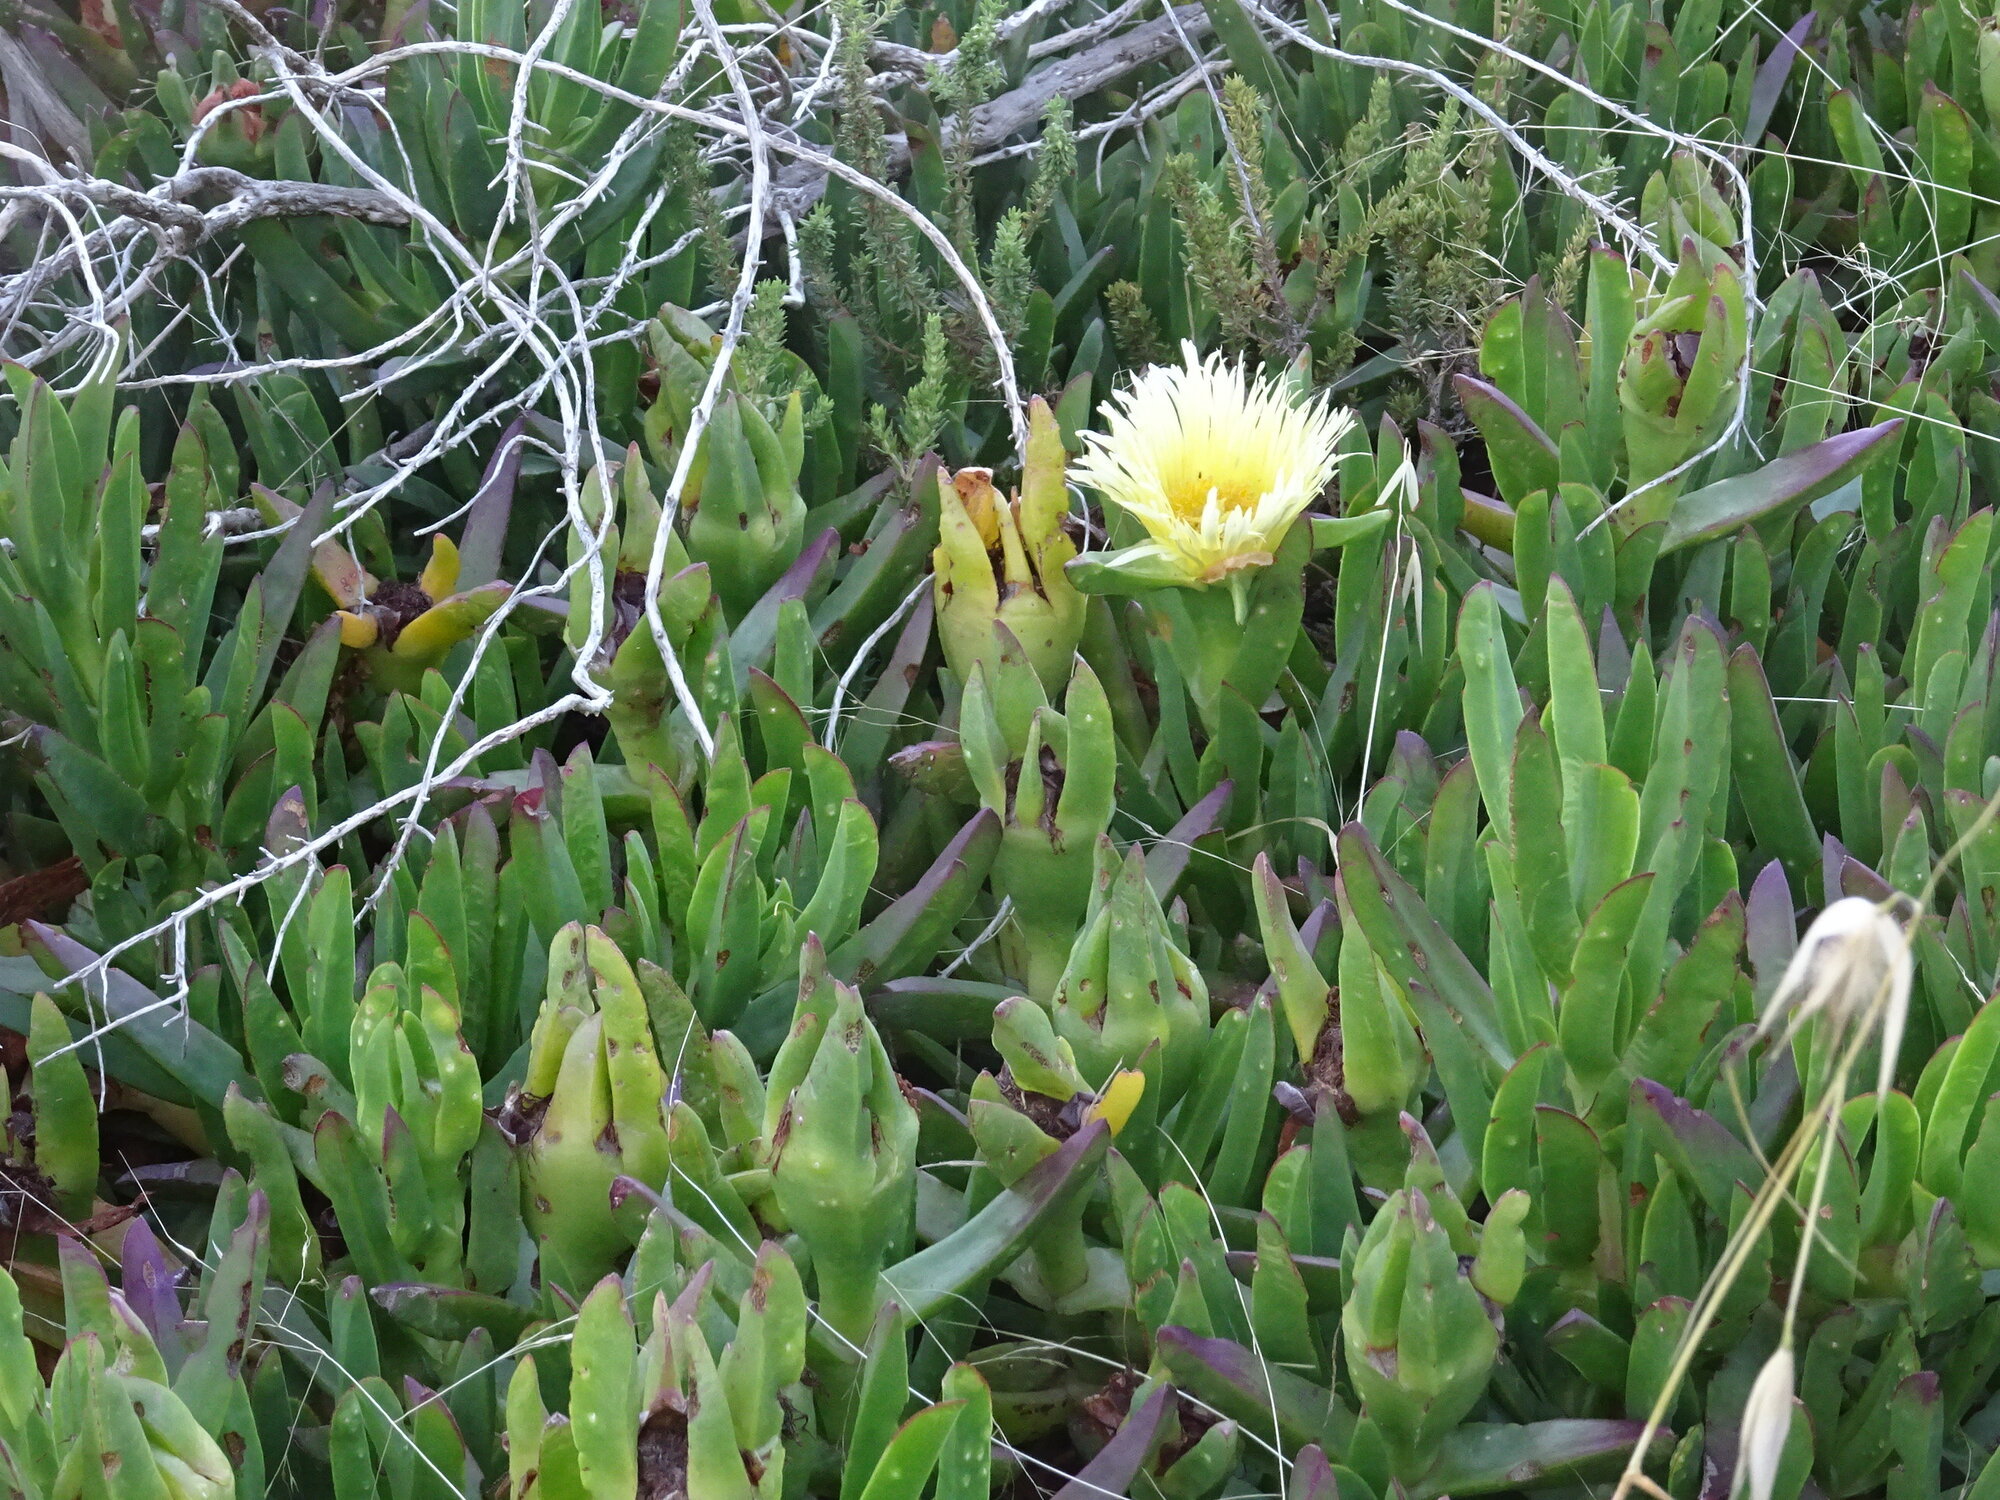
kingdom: Plantae
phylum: Tracheophyta
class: Magnoliopsida
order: Caryophyllales
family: Aizoaceae
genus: Carpobrotus
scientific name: Carpobrotus edulis
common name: Hottentot-fig
